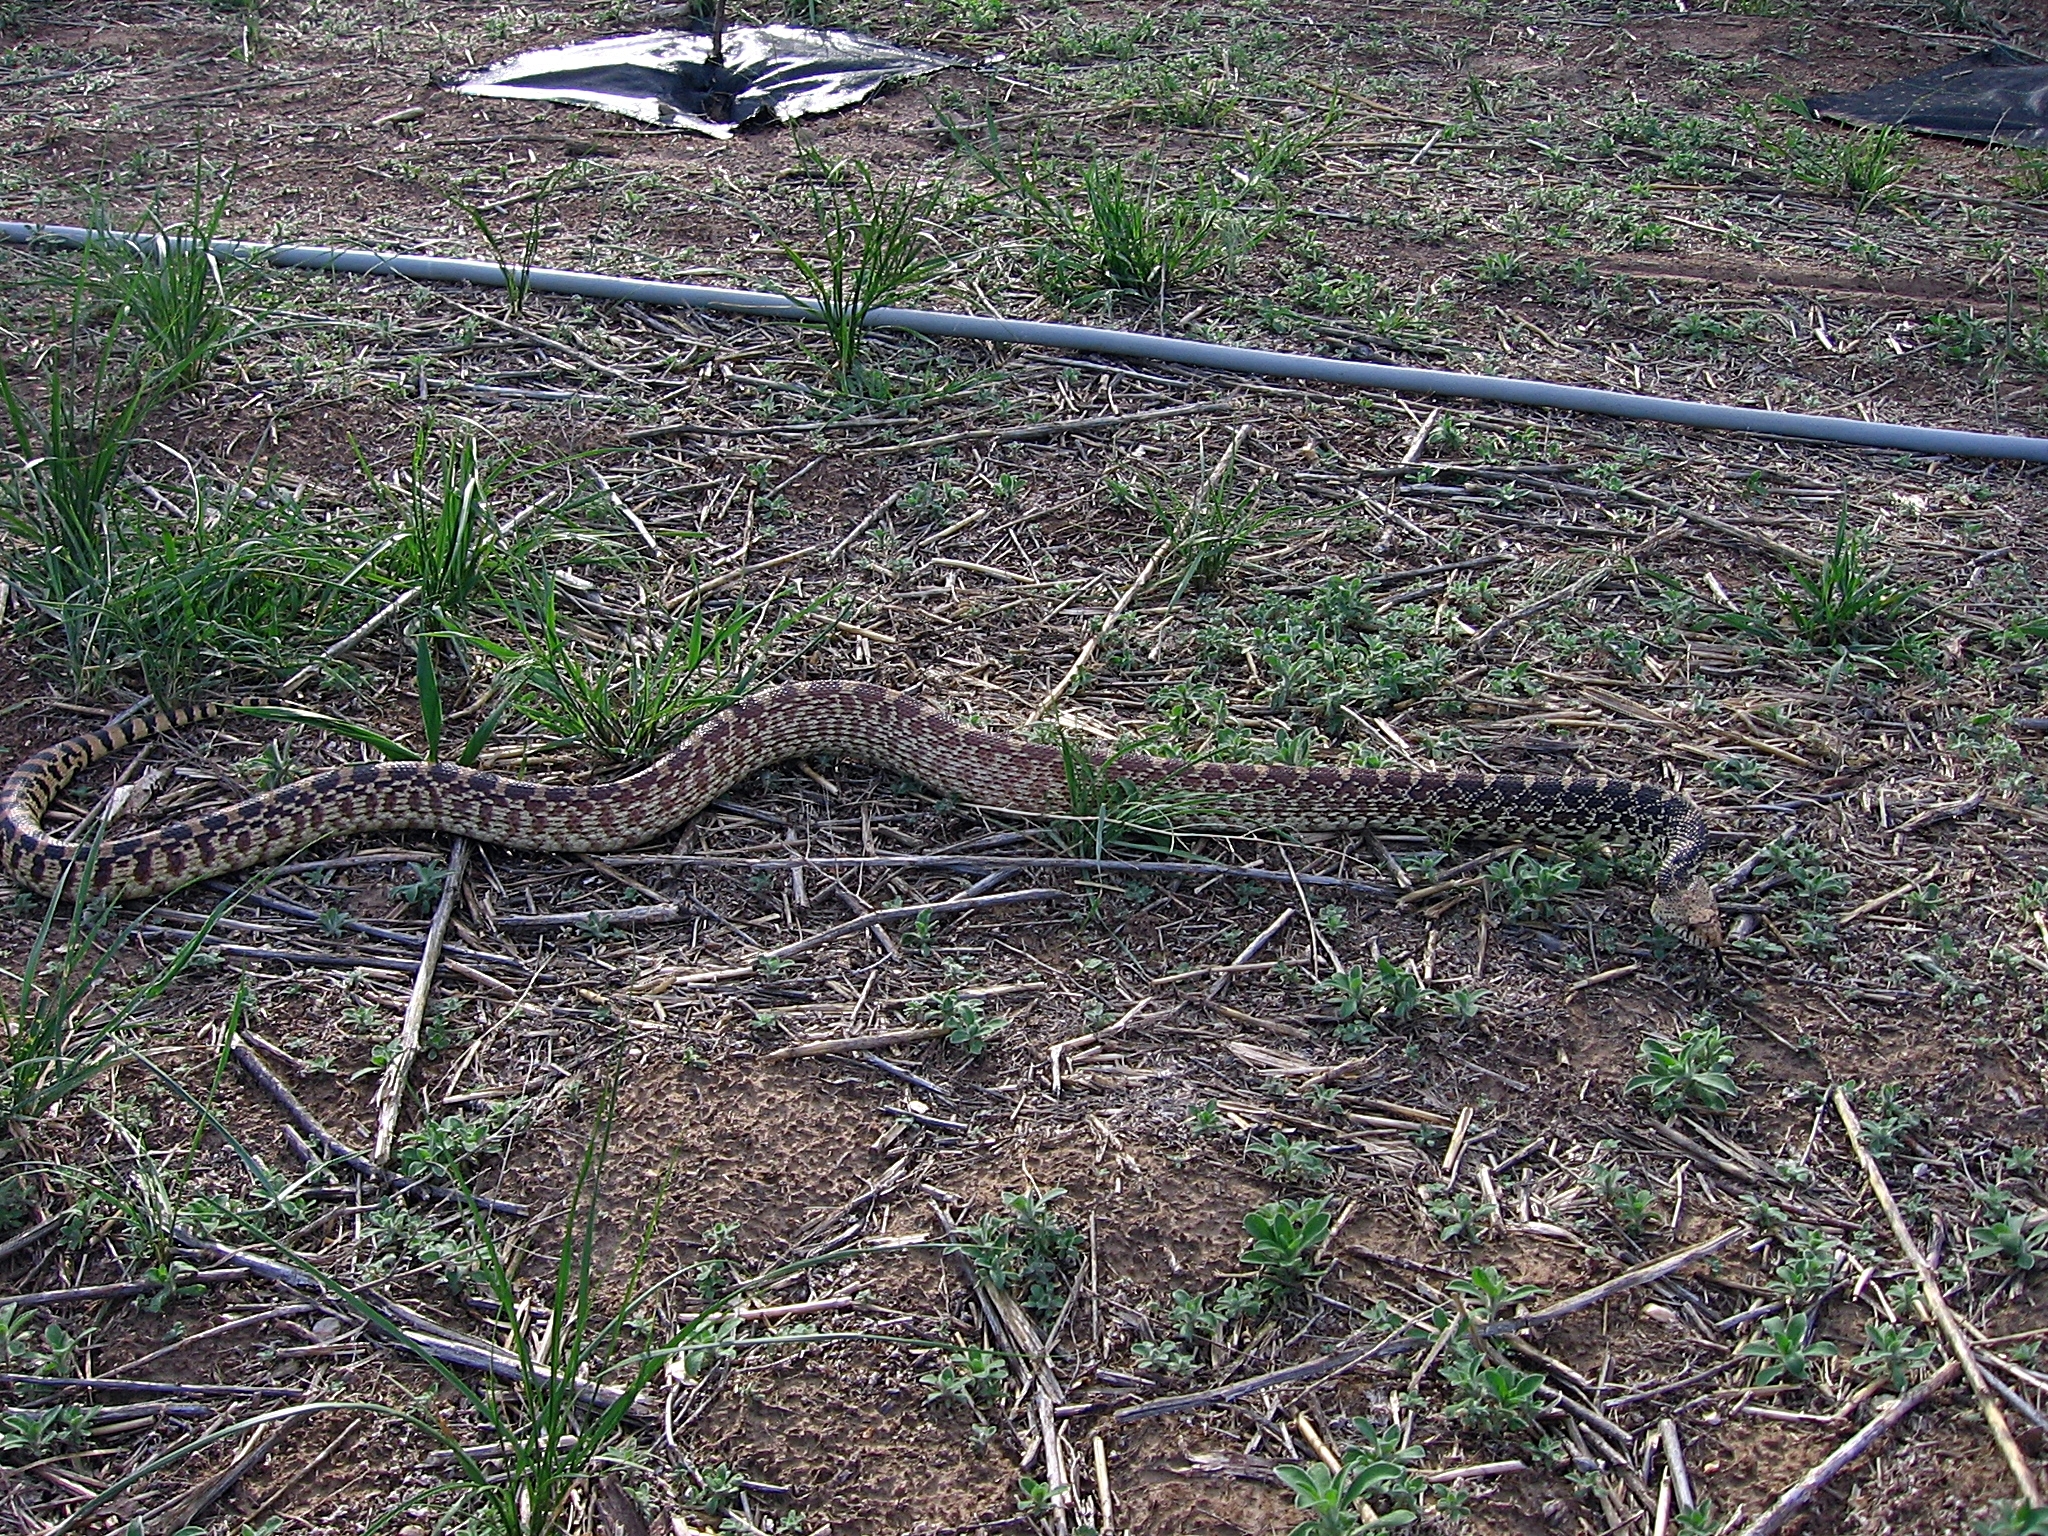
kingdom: Animalia
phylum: Chordata
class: Squamata
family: Colubridae
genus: Pituophis
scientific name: Pituophis catenifer
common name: Gopher snake
